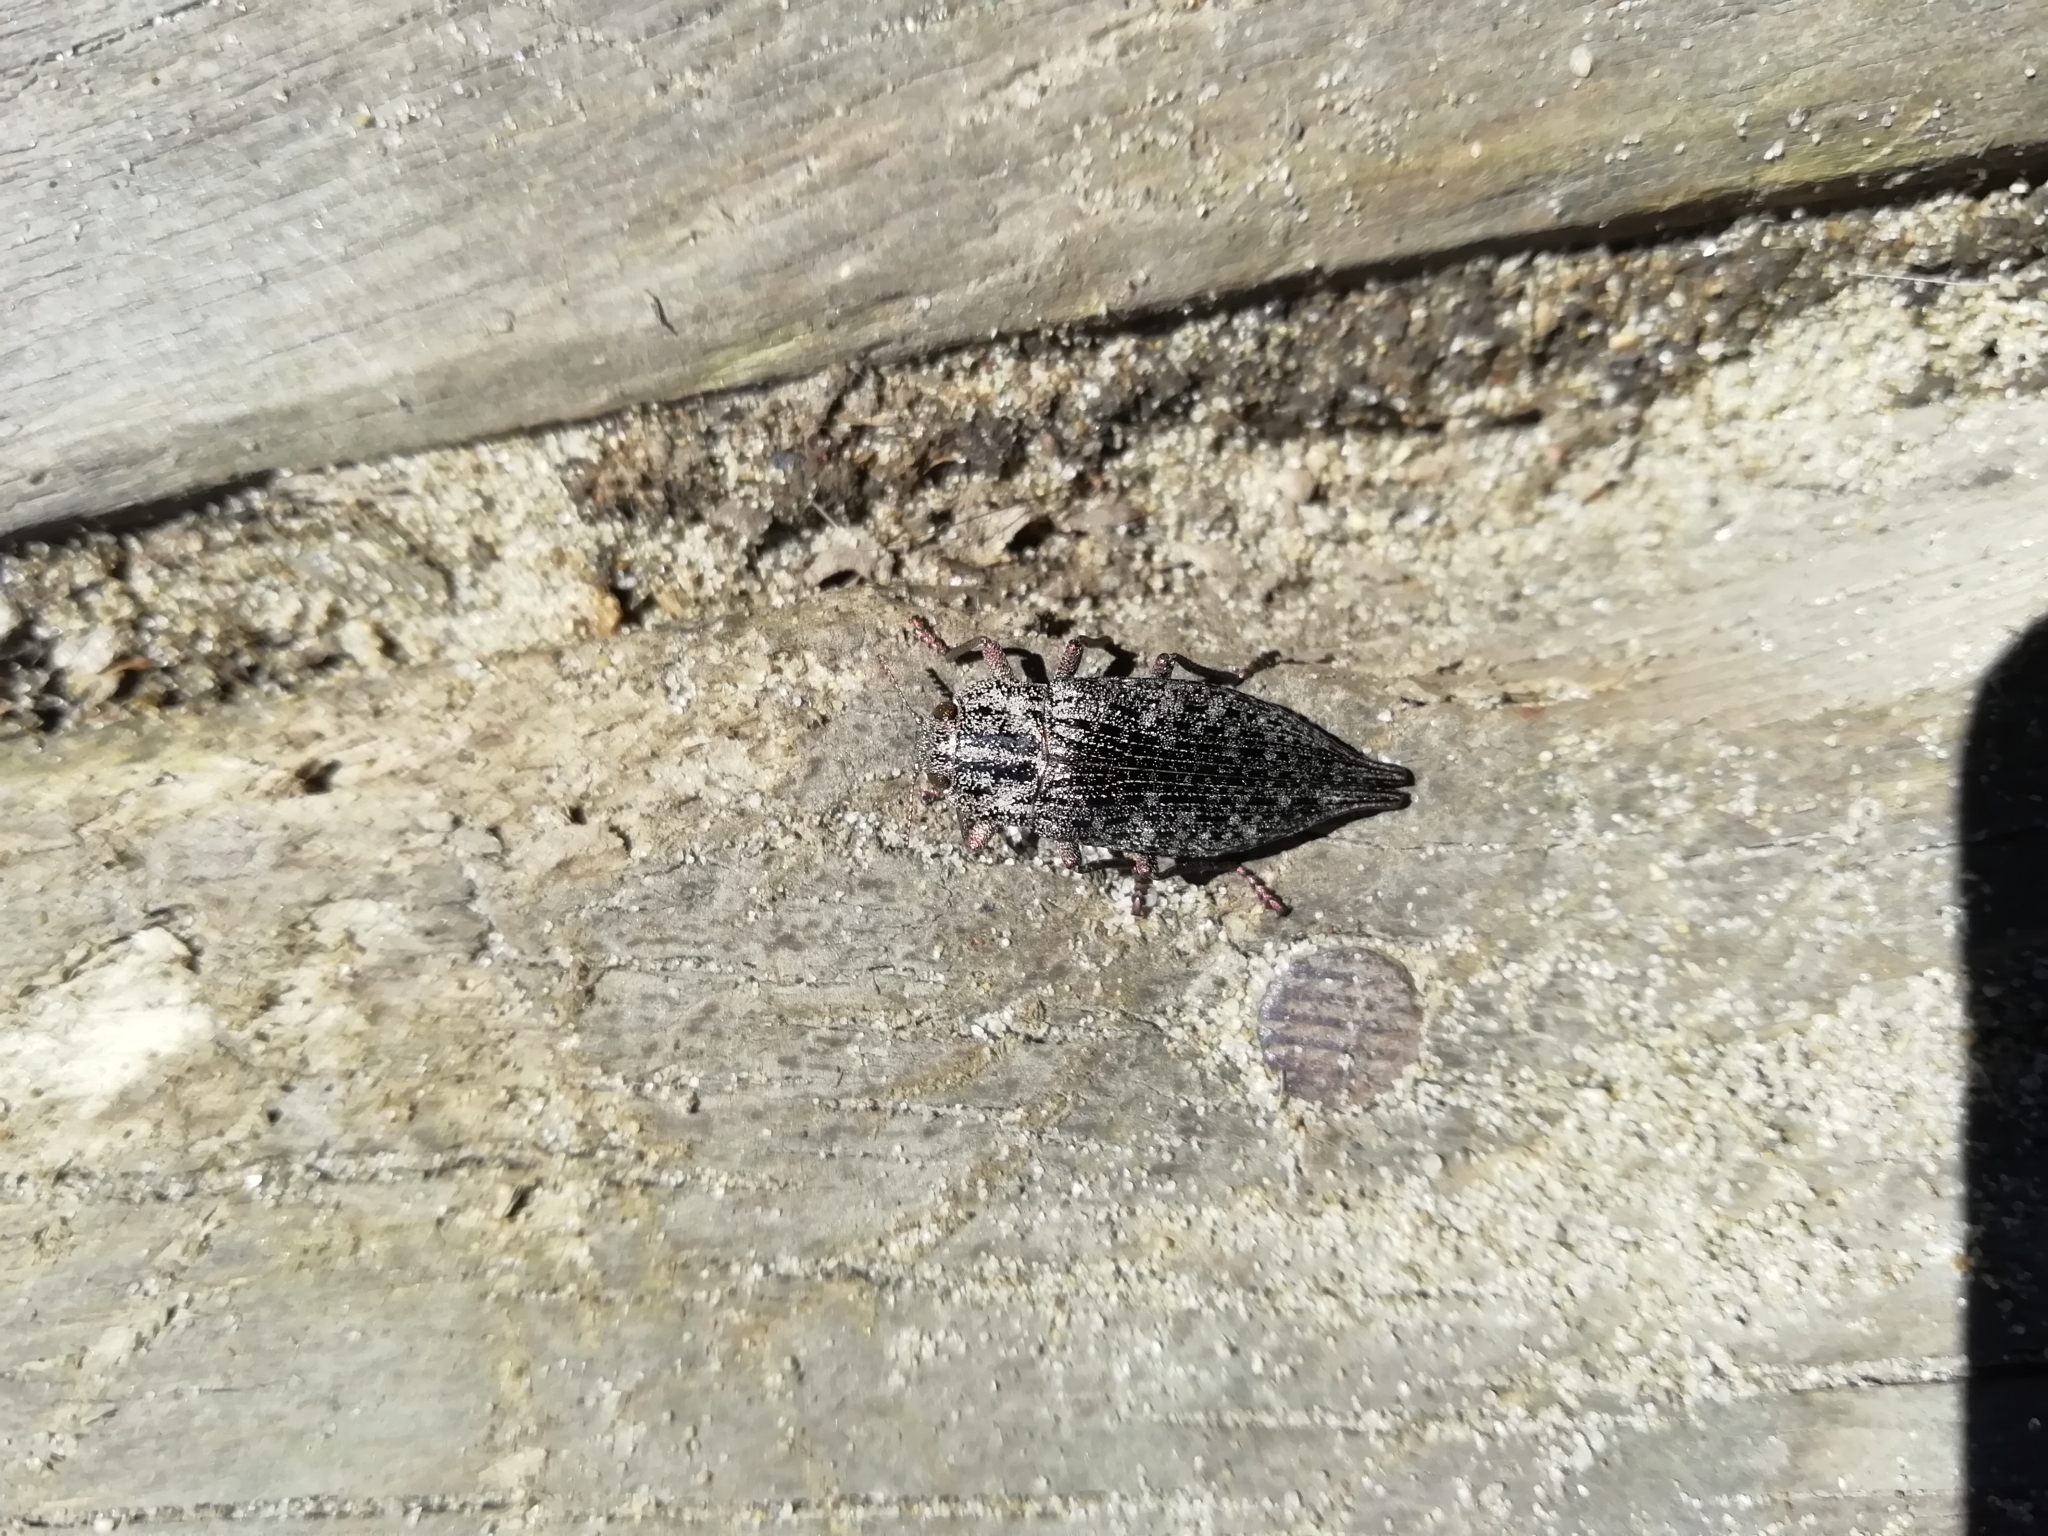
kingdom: Animalia
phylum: Arthropoda
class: Insecta
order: Coleoptera
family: Buprestidae
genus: Dicerca
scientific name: Dicerca
